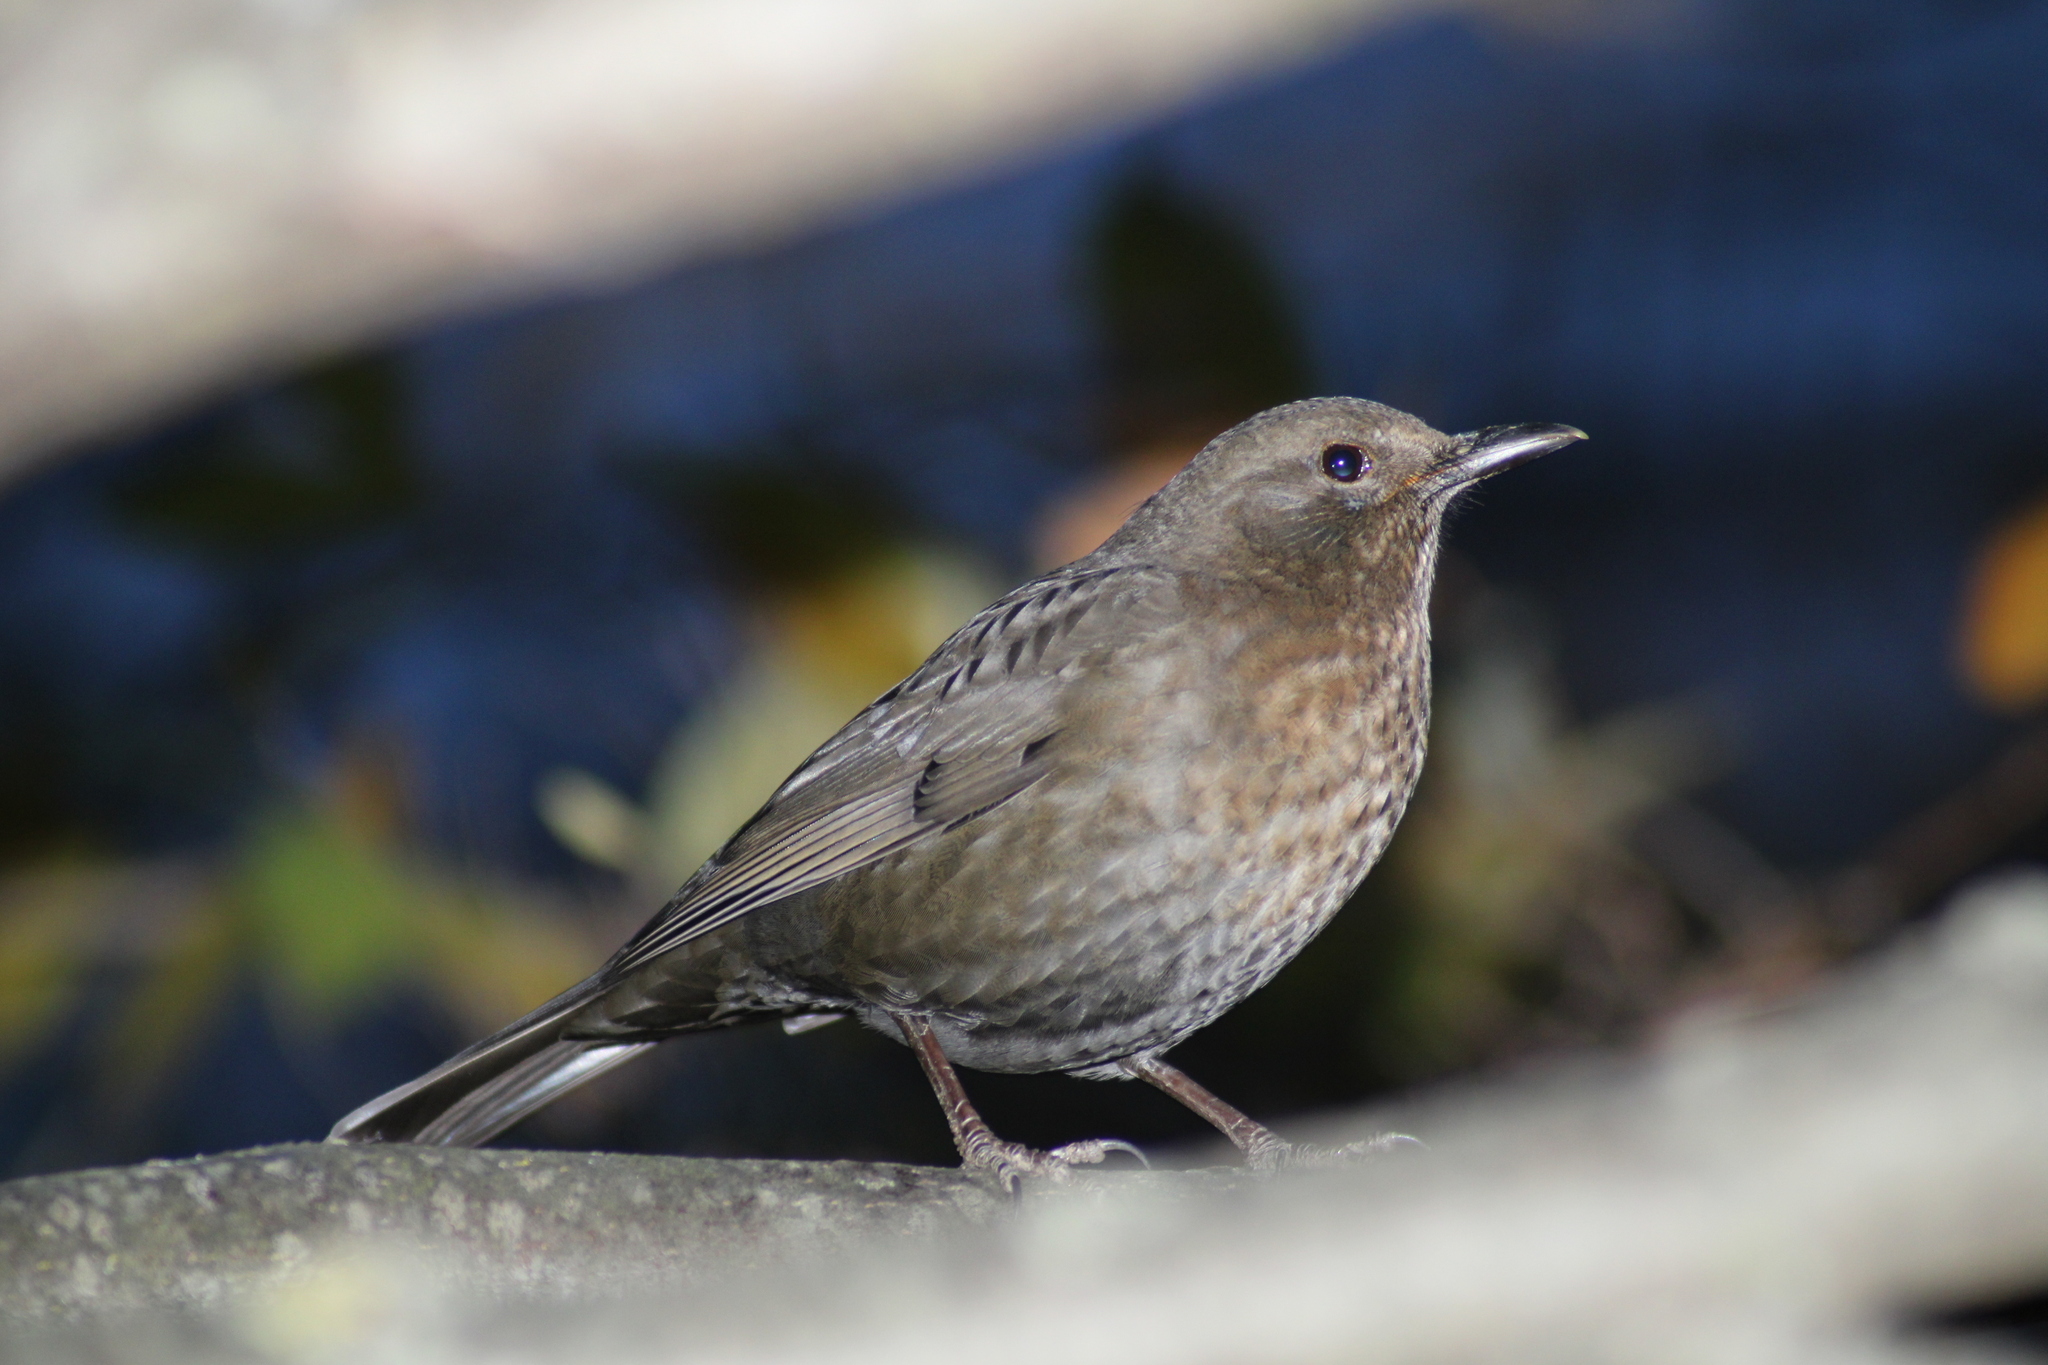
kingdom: Animalia
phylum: Chordata
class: Aves
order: Passeriformes
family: Turdidae
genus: Turdus
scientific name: Turdus merula
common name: Common blackbird
